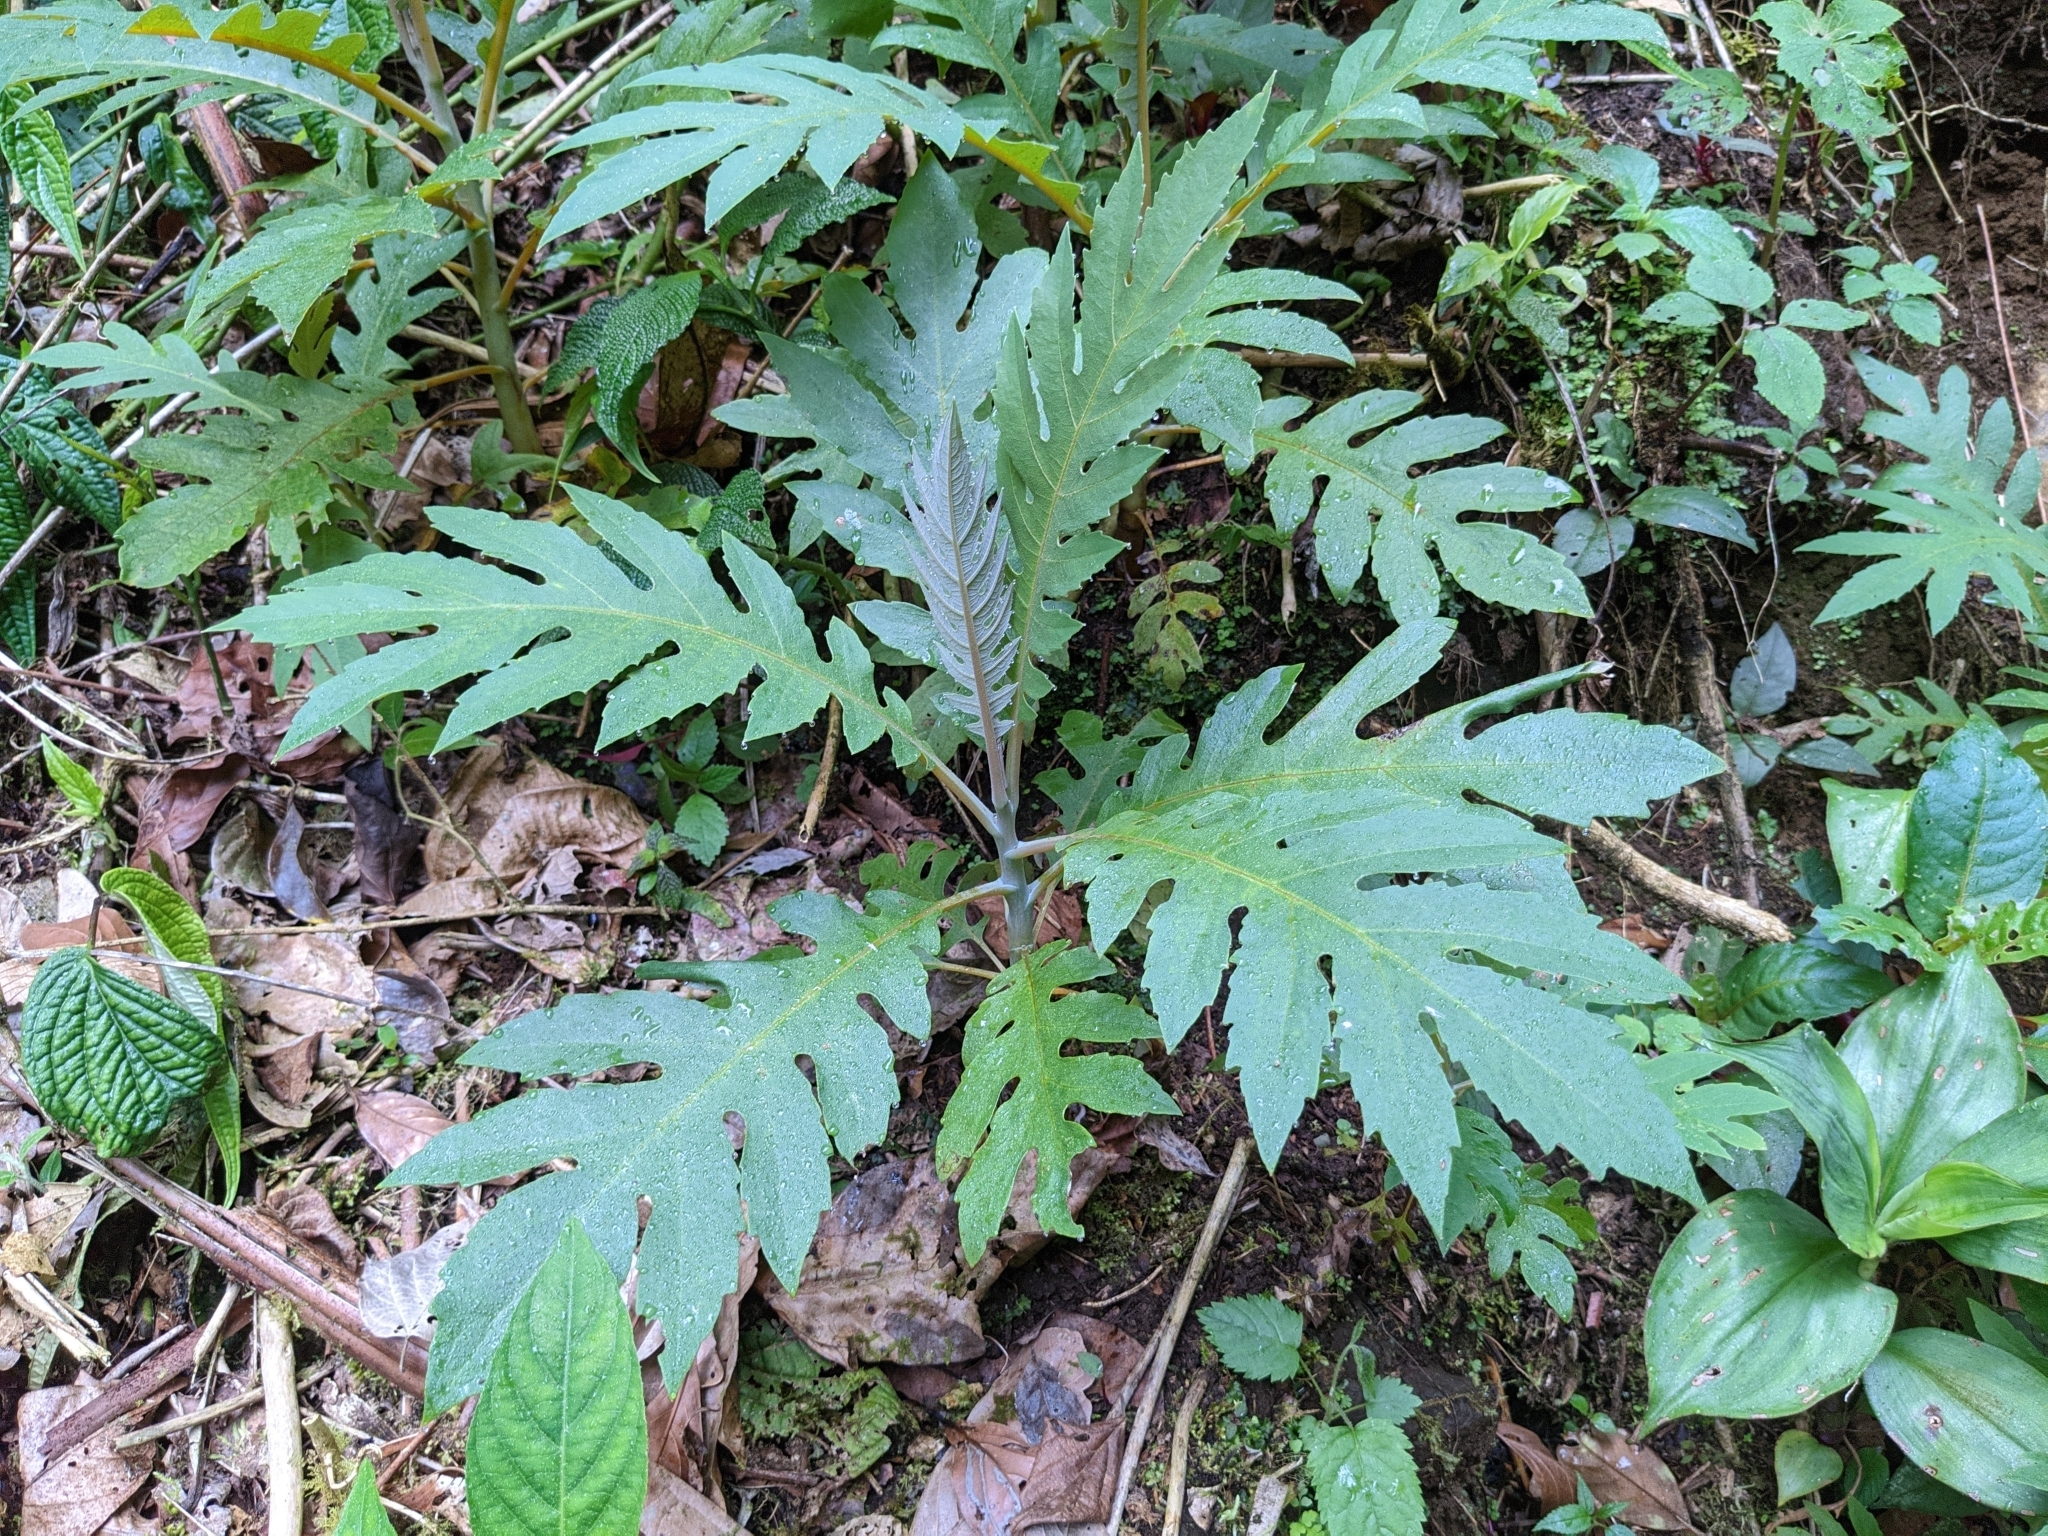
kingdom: Plantae
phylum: Tracheophyta
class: Magnoliopsida
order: Ranunculales
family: Papaveraceae
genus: Bocconia
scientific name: Bocconia frutescens
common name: Tree poppy
